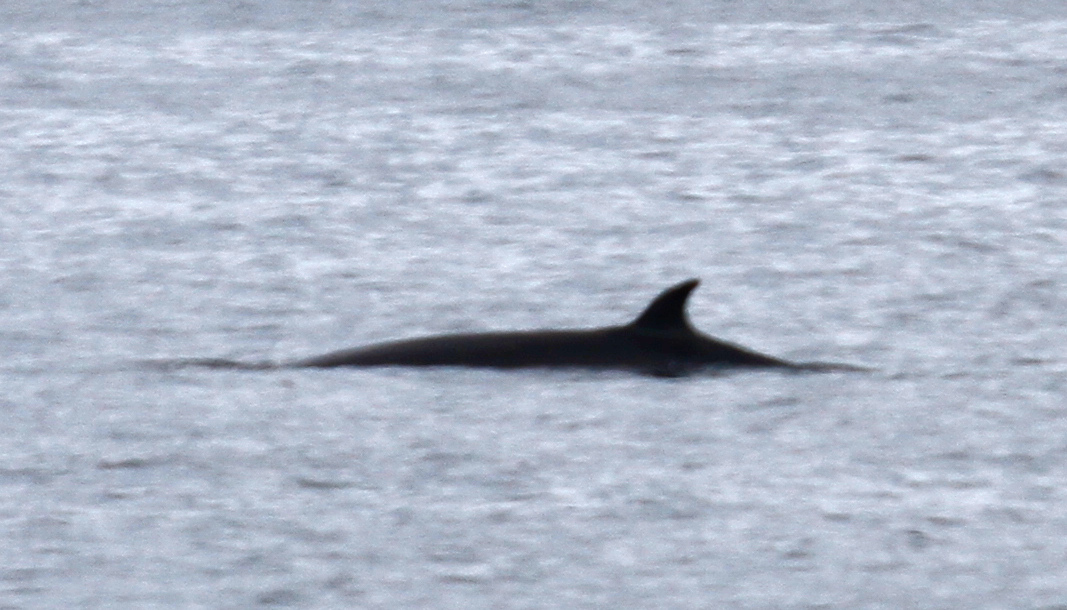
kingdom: Animalia
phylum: Chordata
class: Mammalia
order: Cetacea
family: Balaenopteridae
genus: Balaenoptera
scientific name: Balaenoptera borealis
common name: Sei whale
